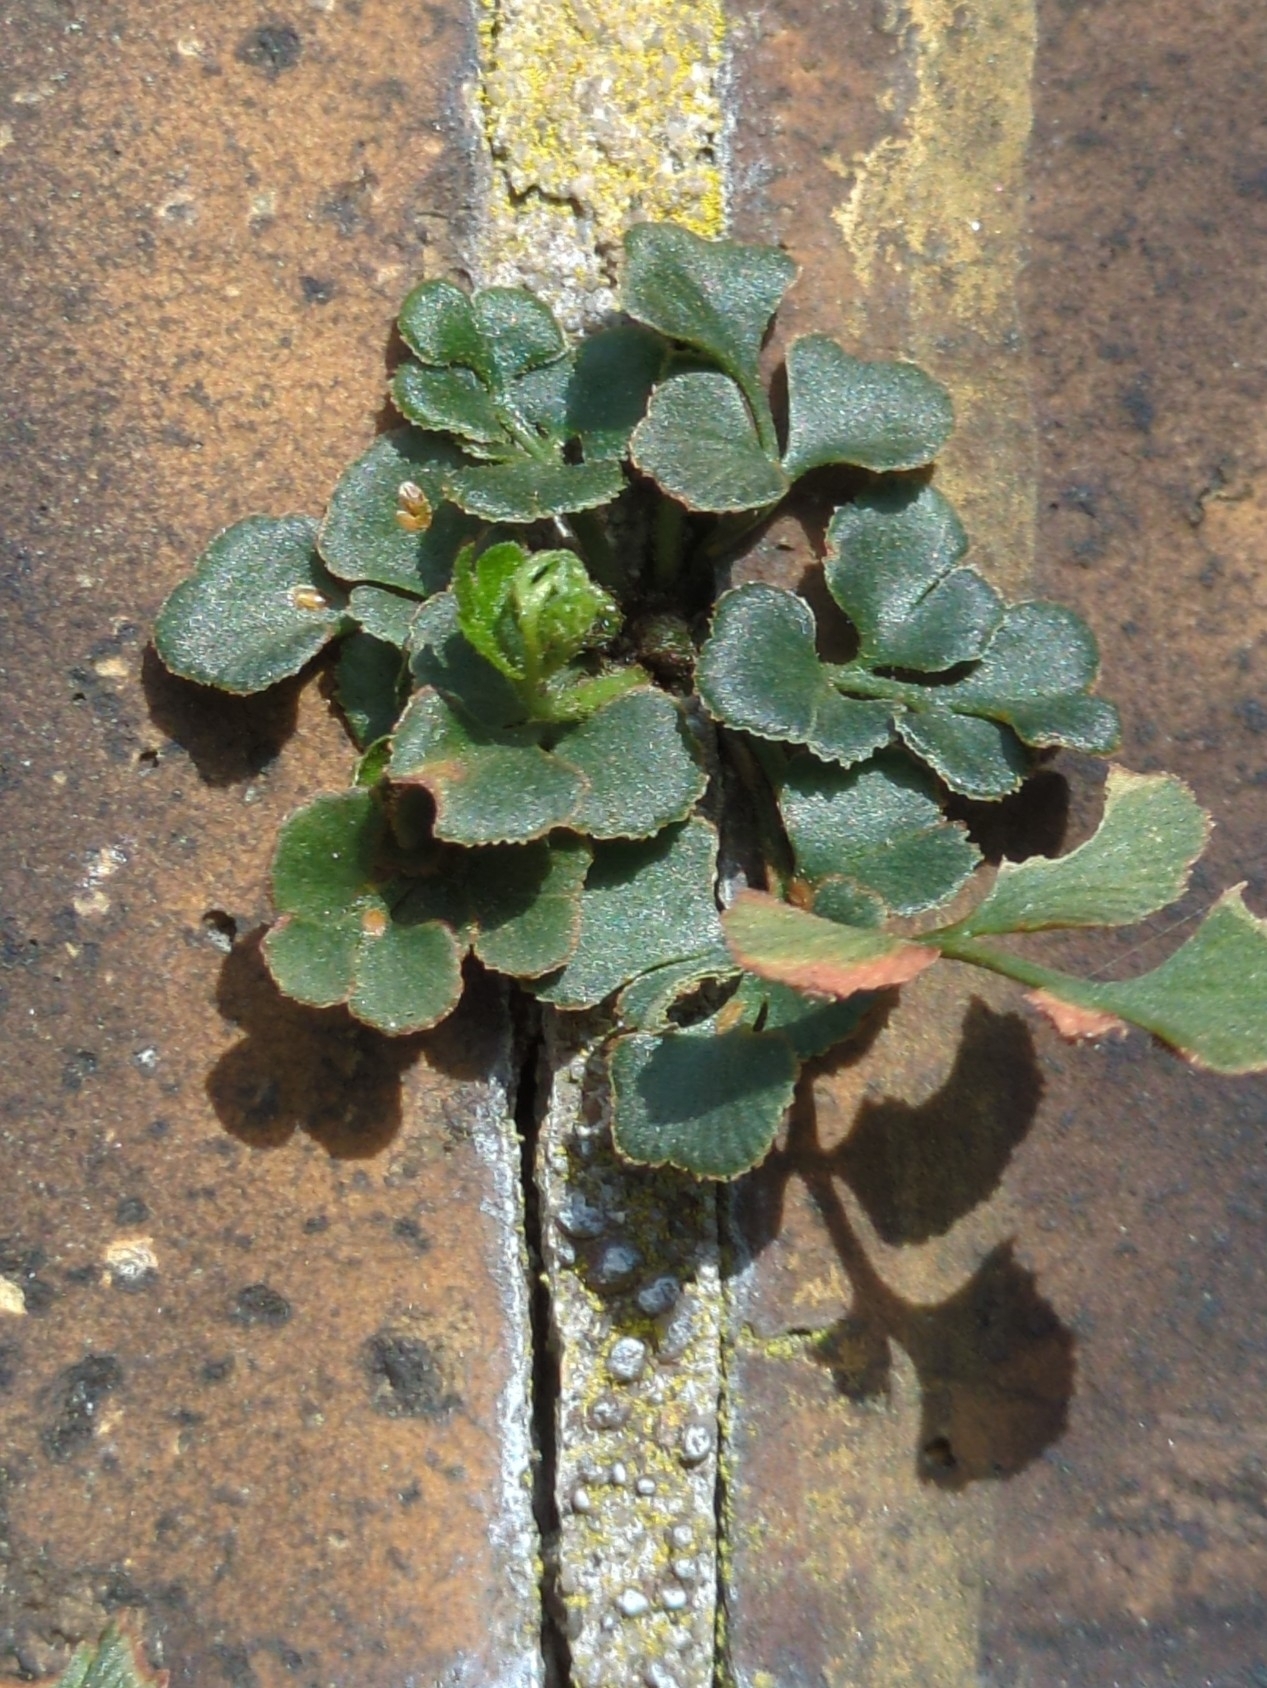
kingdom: Plantae
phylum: Tracheophyta
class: Polypodiopsida
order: Polypodiales
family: Aspleniaceae
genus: Asplenium
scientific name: Asplenium ruta-muraria
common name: Wall-rue
